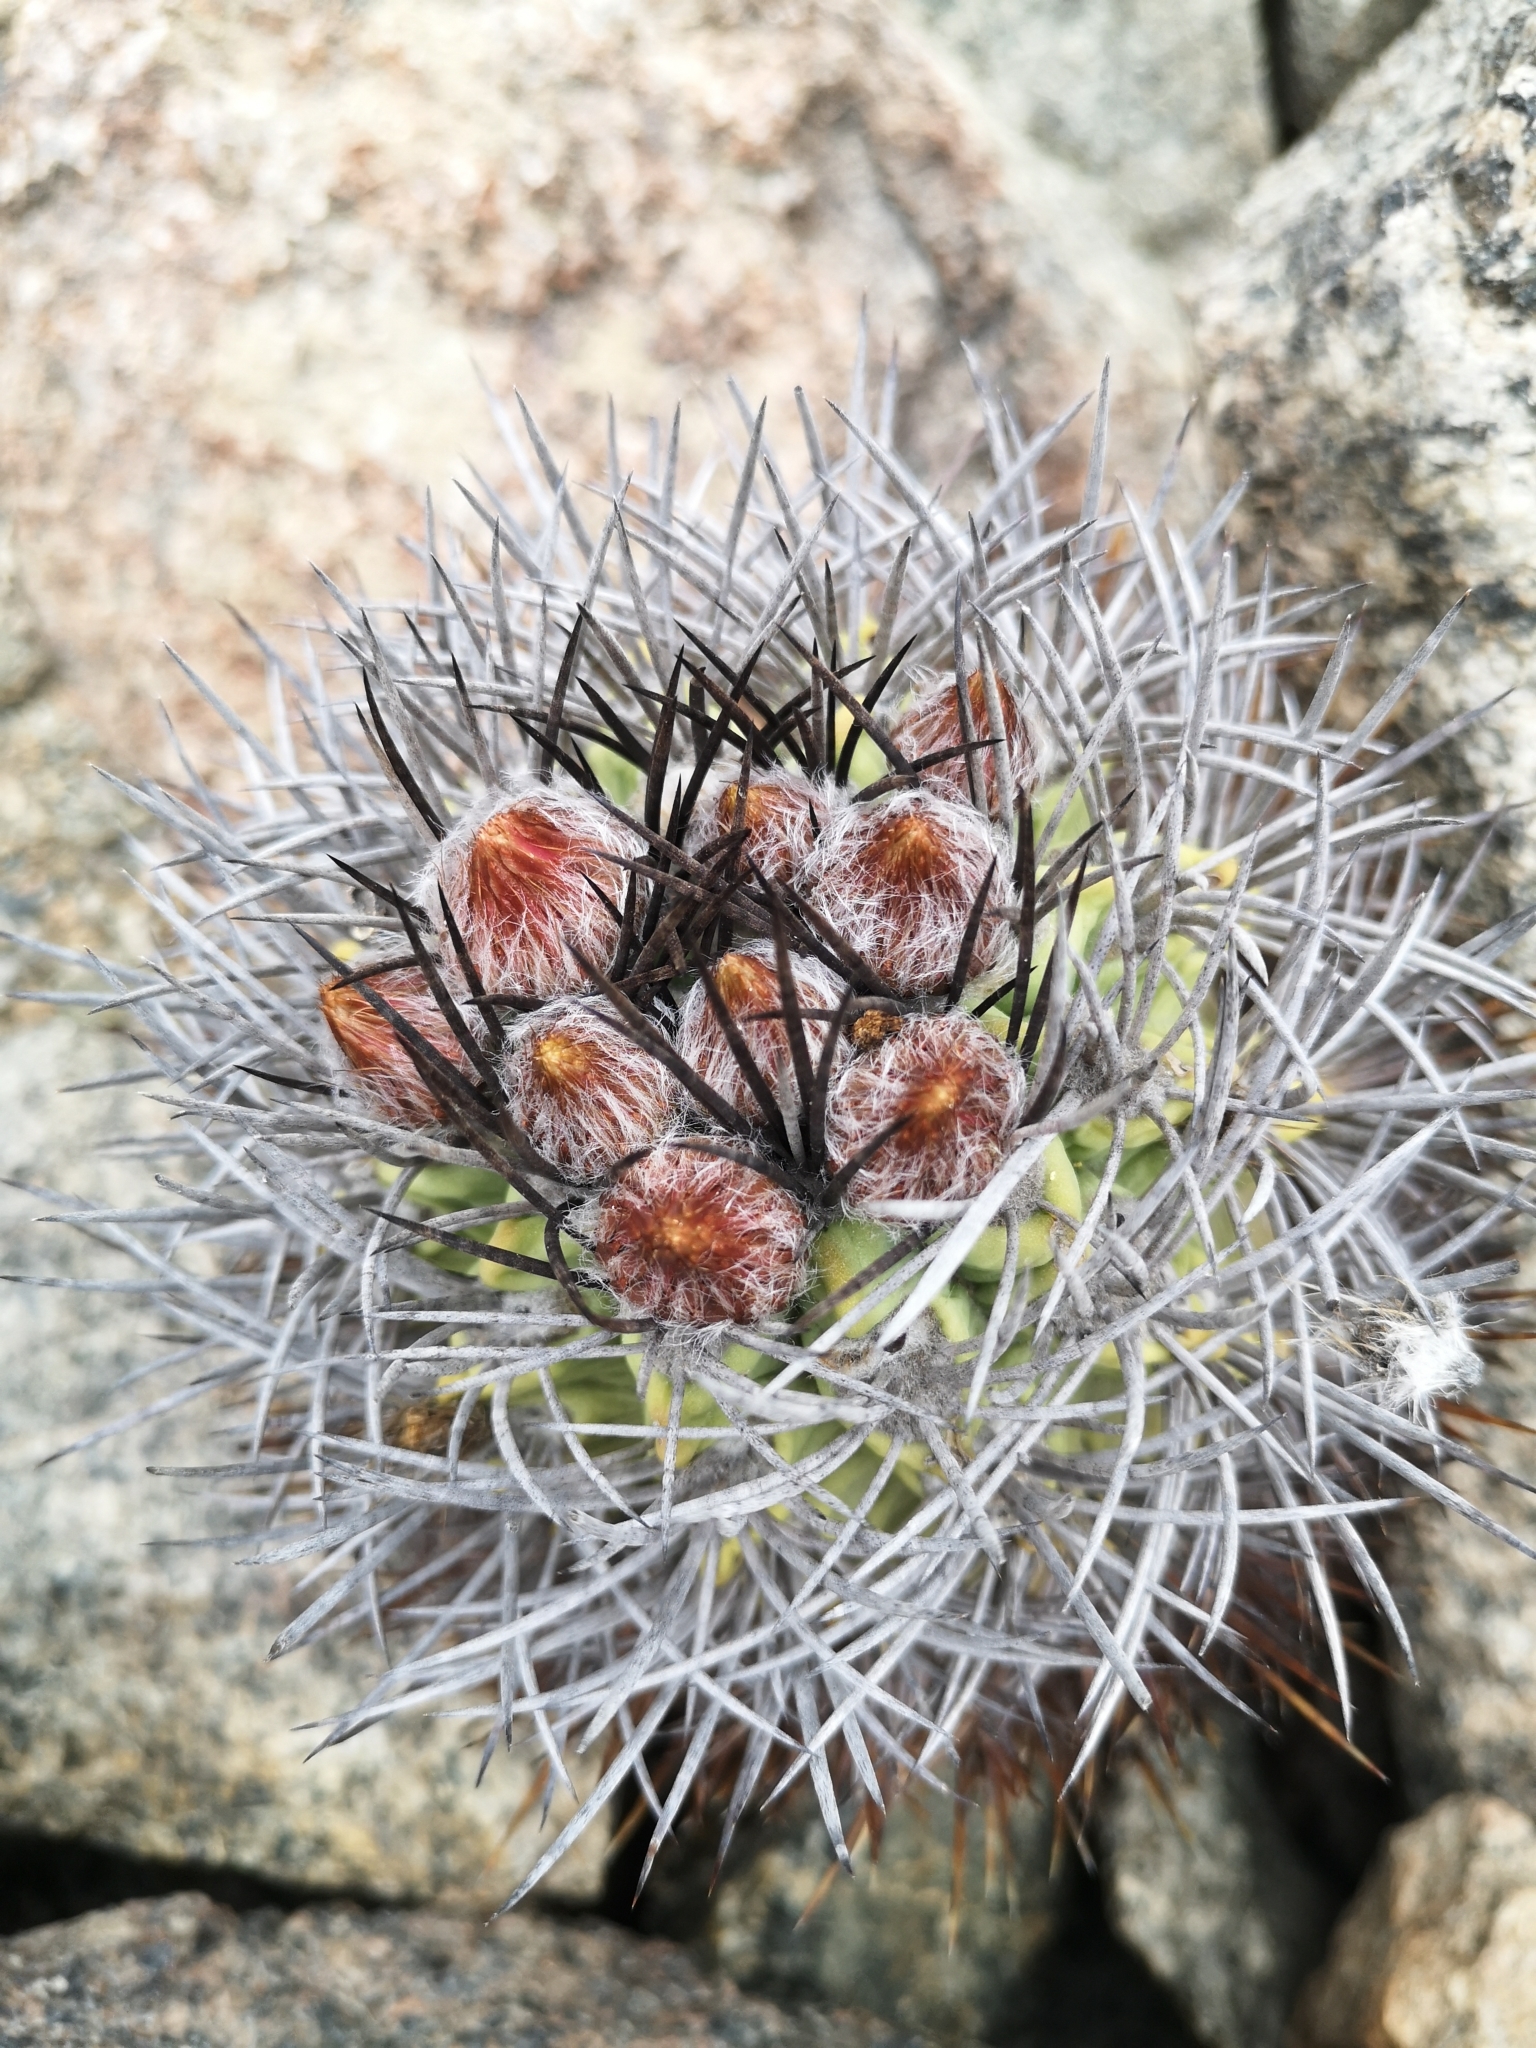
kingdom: Plantae
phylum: Tracheophyta
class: Magnoliopsida
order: Caryophyllales
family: Cactaceae
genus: Eriosyce
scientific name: Eriosyce paucicostata
